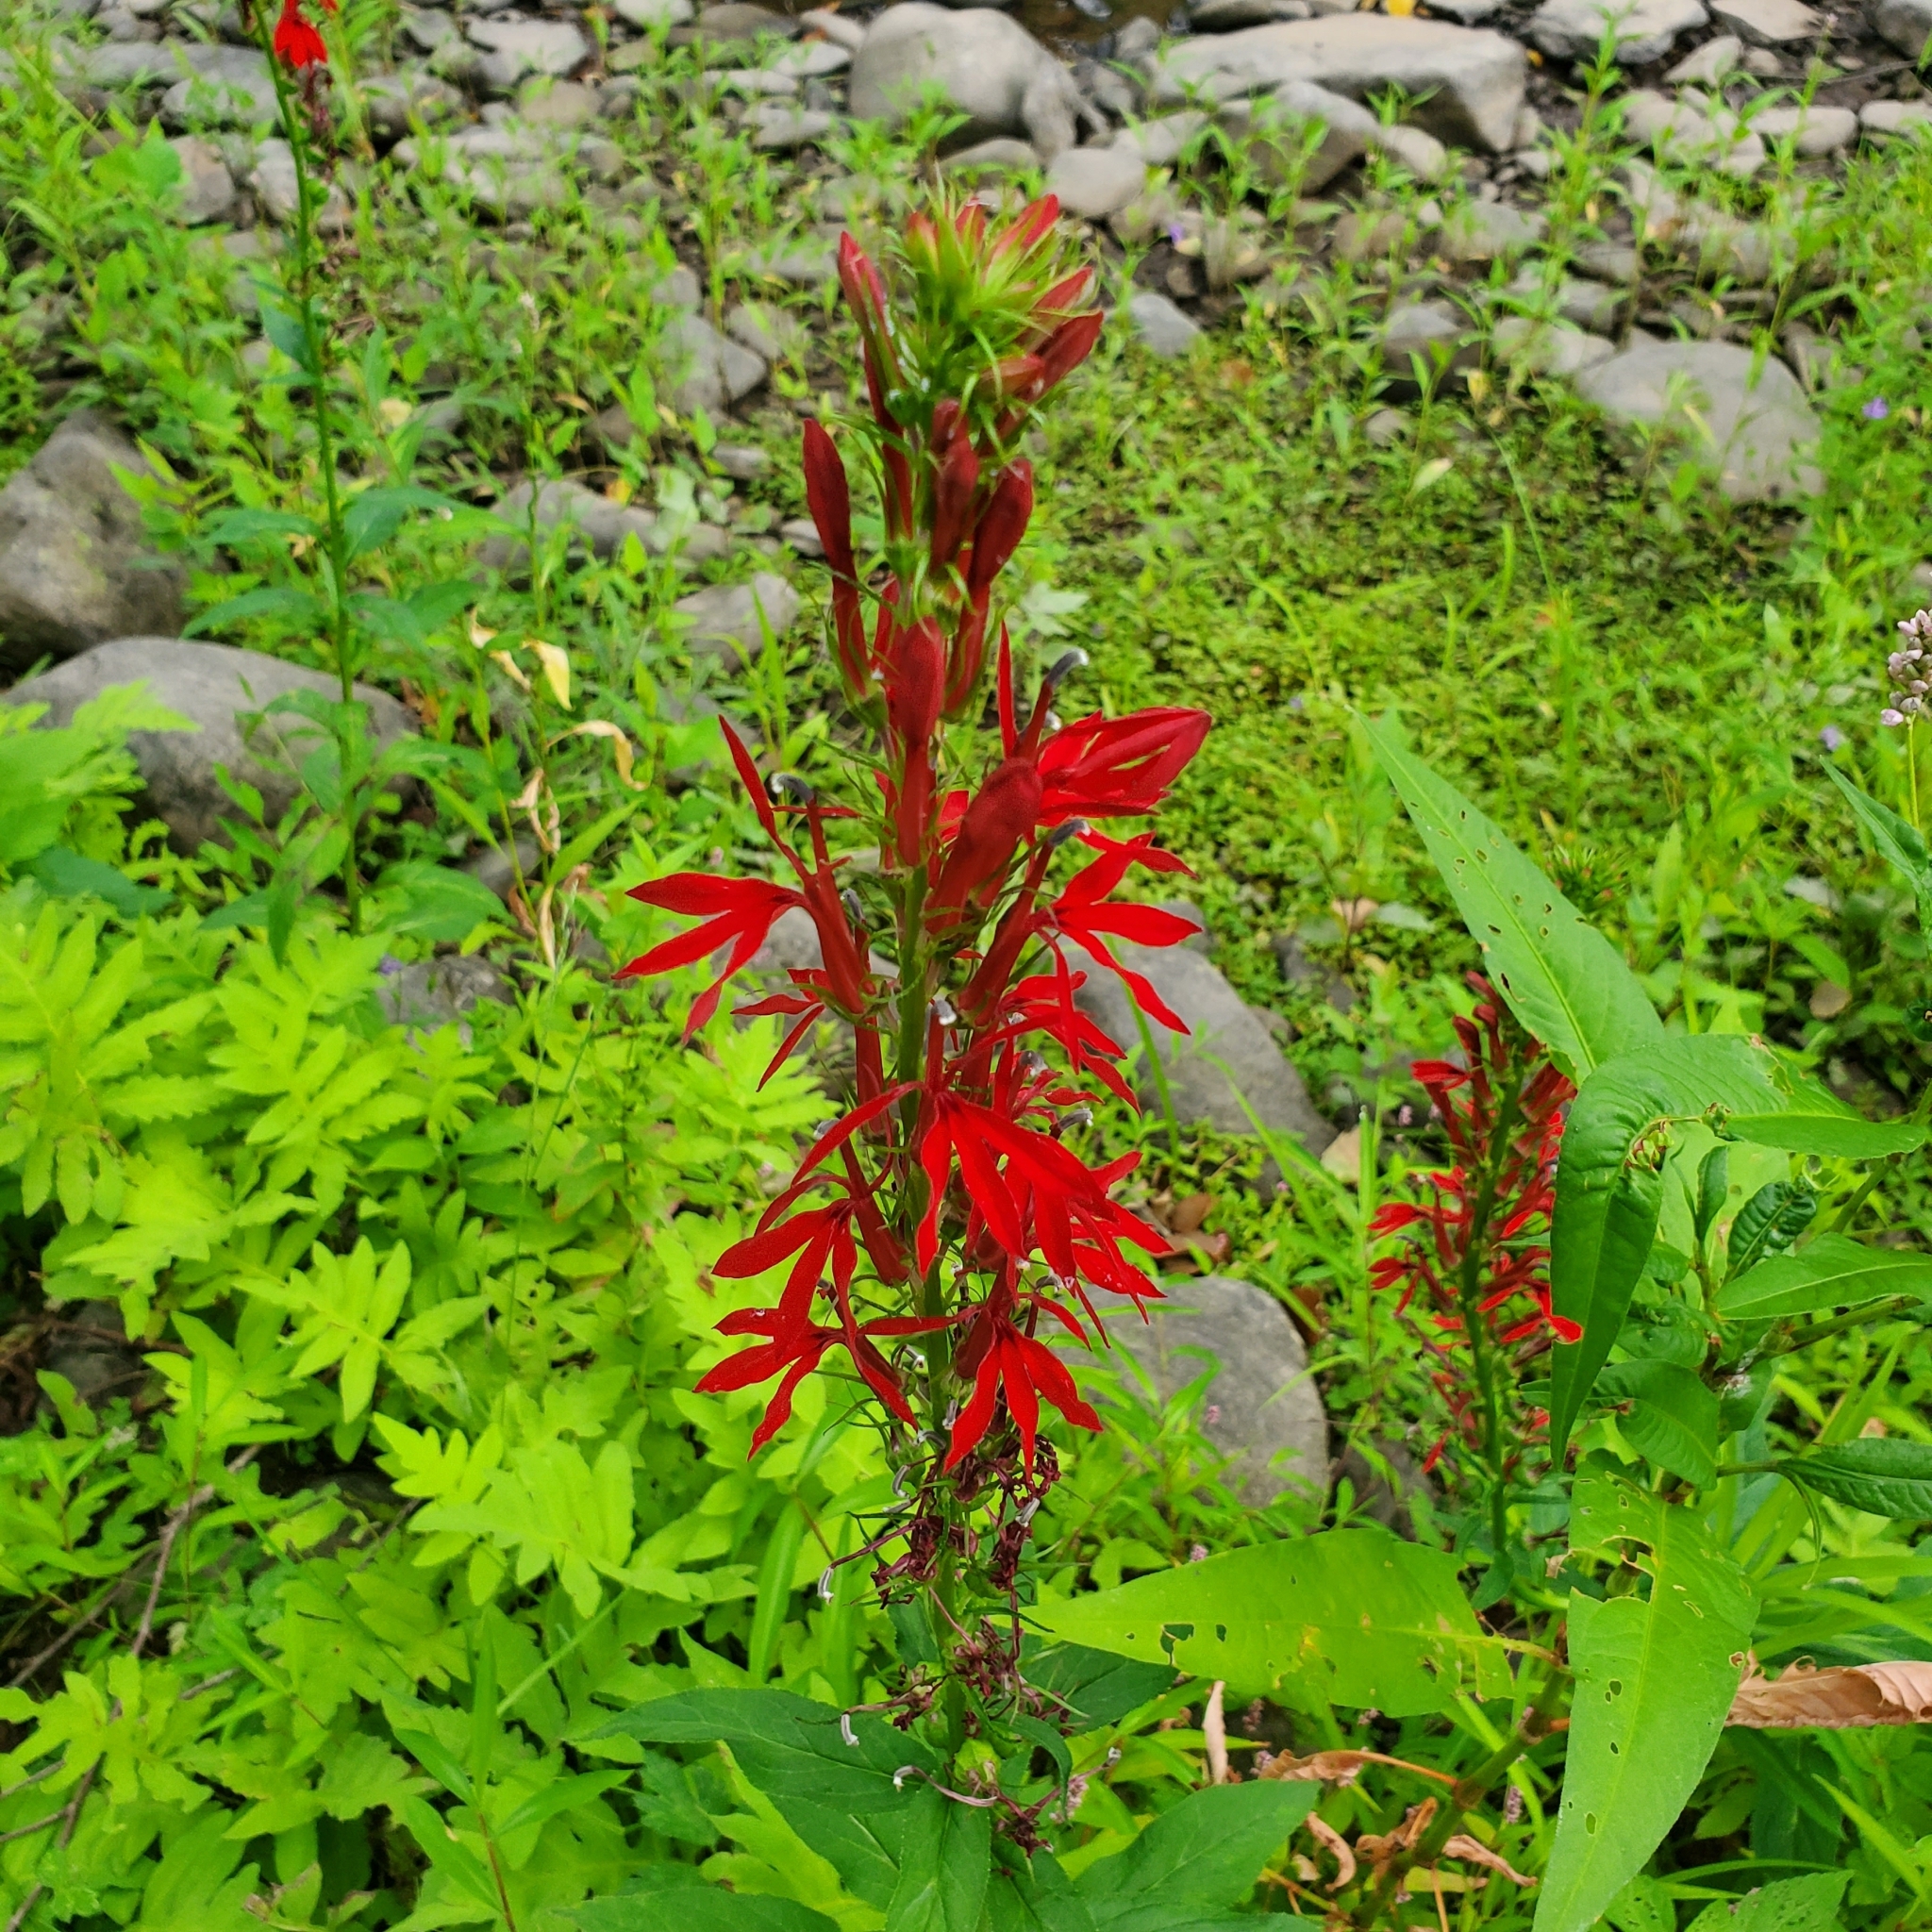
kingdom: Plantae
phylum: Tracheophyta
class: Magnoliopsida
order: Asterales
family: Campanulaceae
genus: Lobelia
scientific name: Lobelia cardinalis
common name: Cardinal flower
